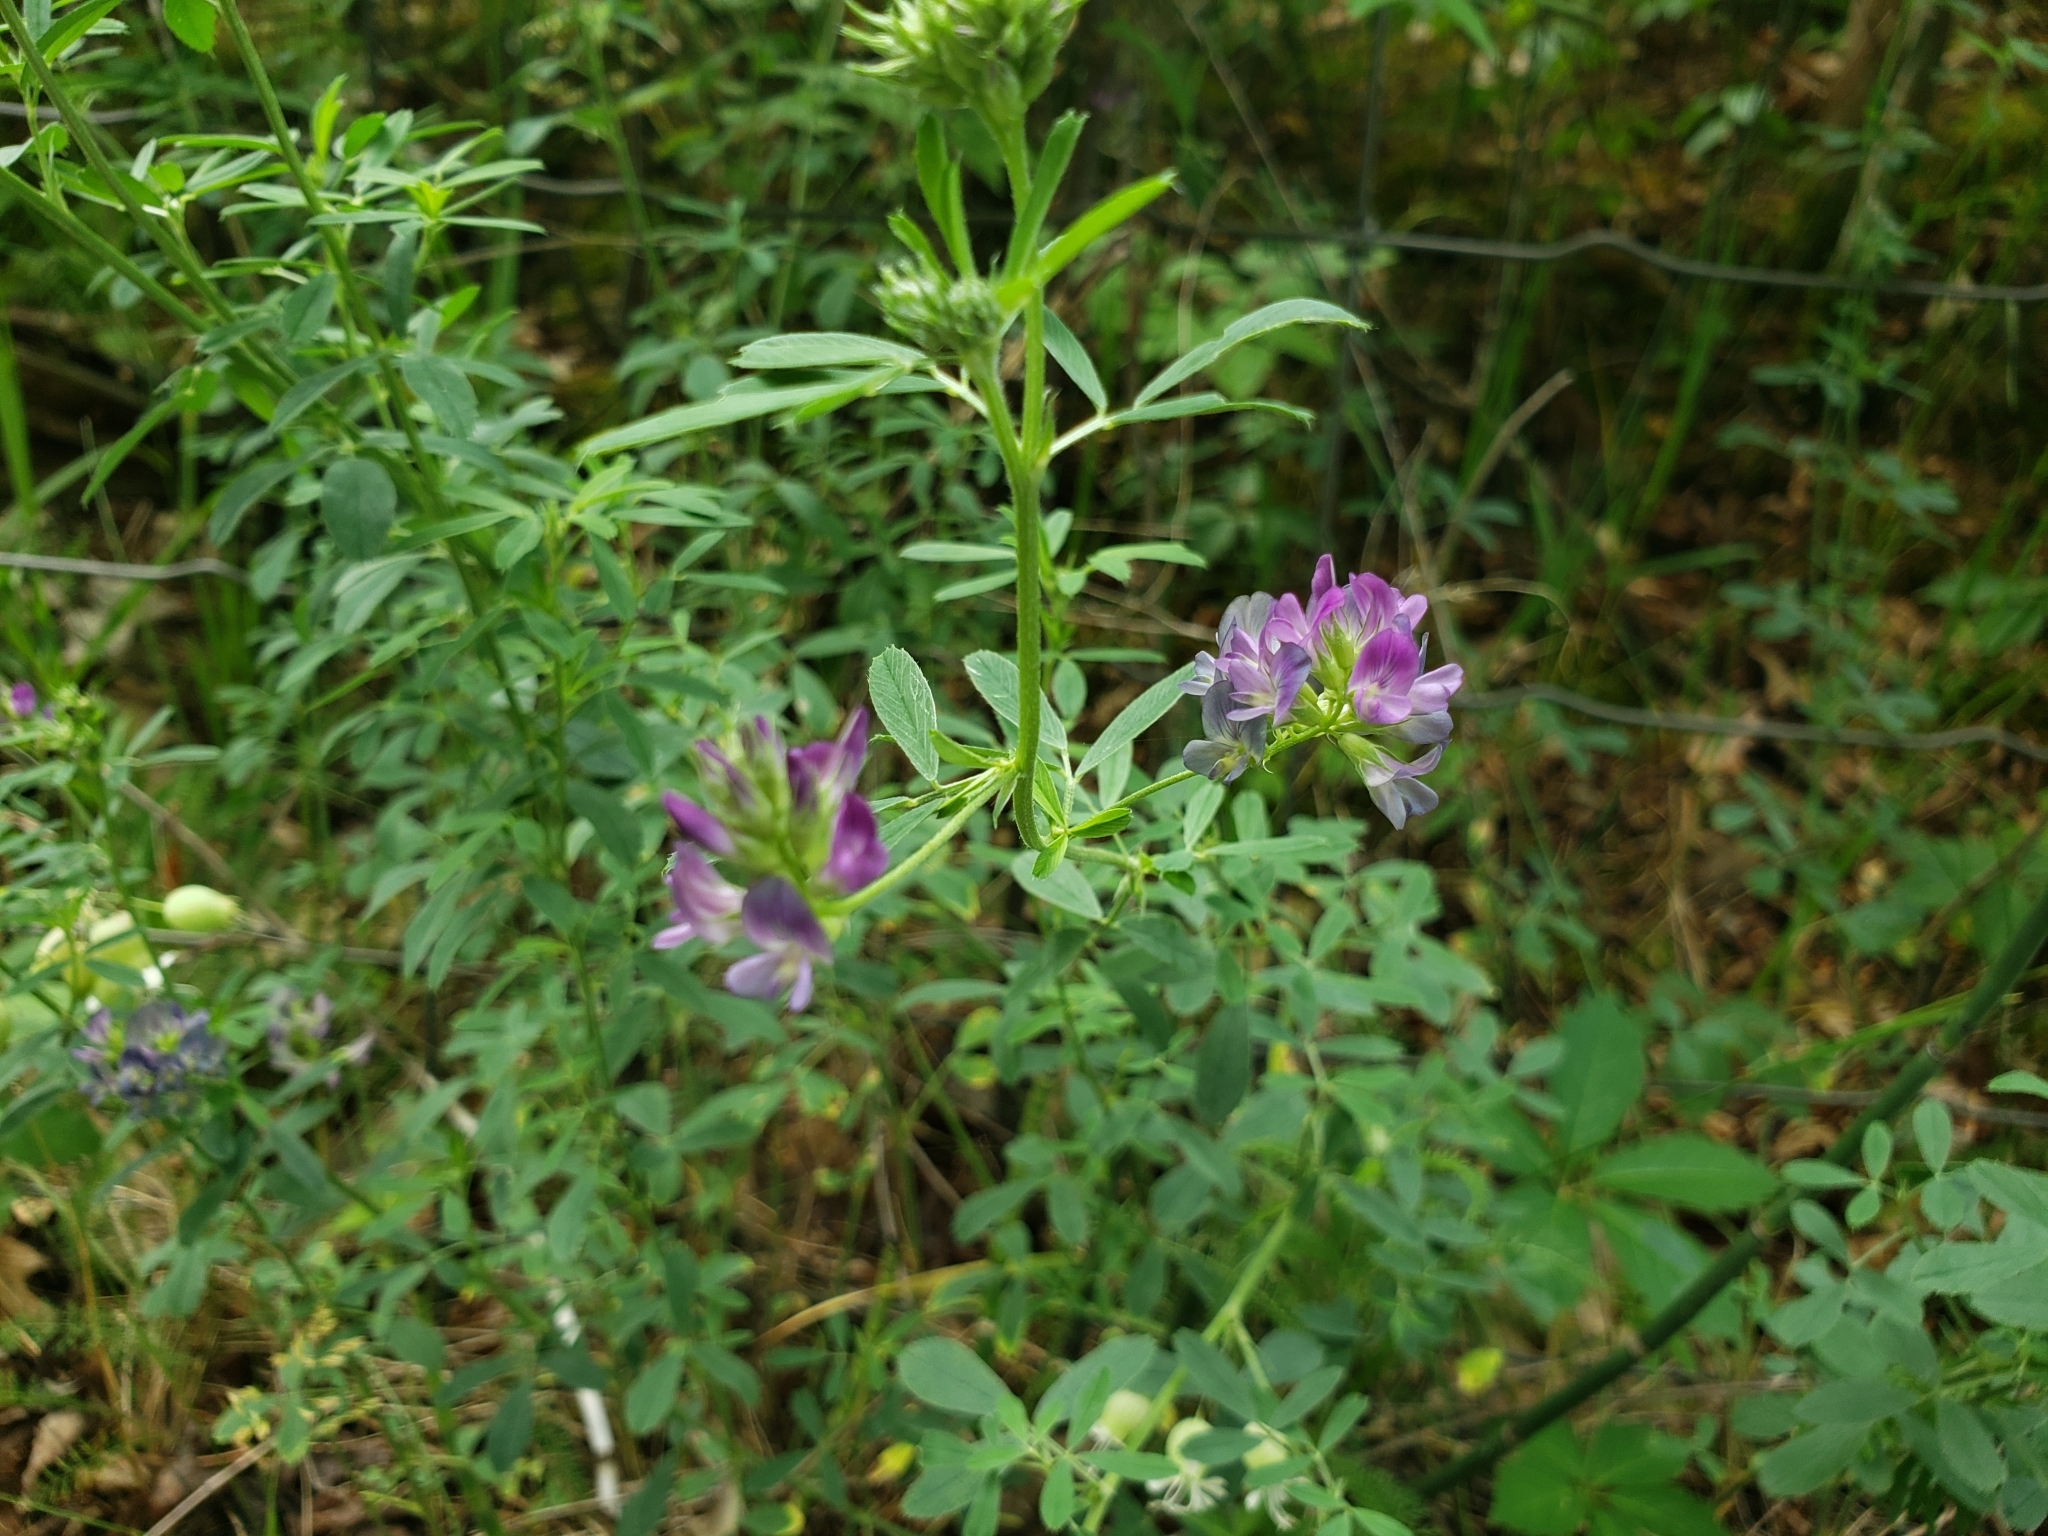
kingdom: Plantae
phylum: Tracheophyta
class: Magnoliopsida
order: Fabales
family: Fabaceae
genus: Medicago
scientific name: Medicago sativa
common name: Alfalfa
